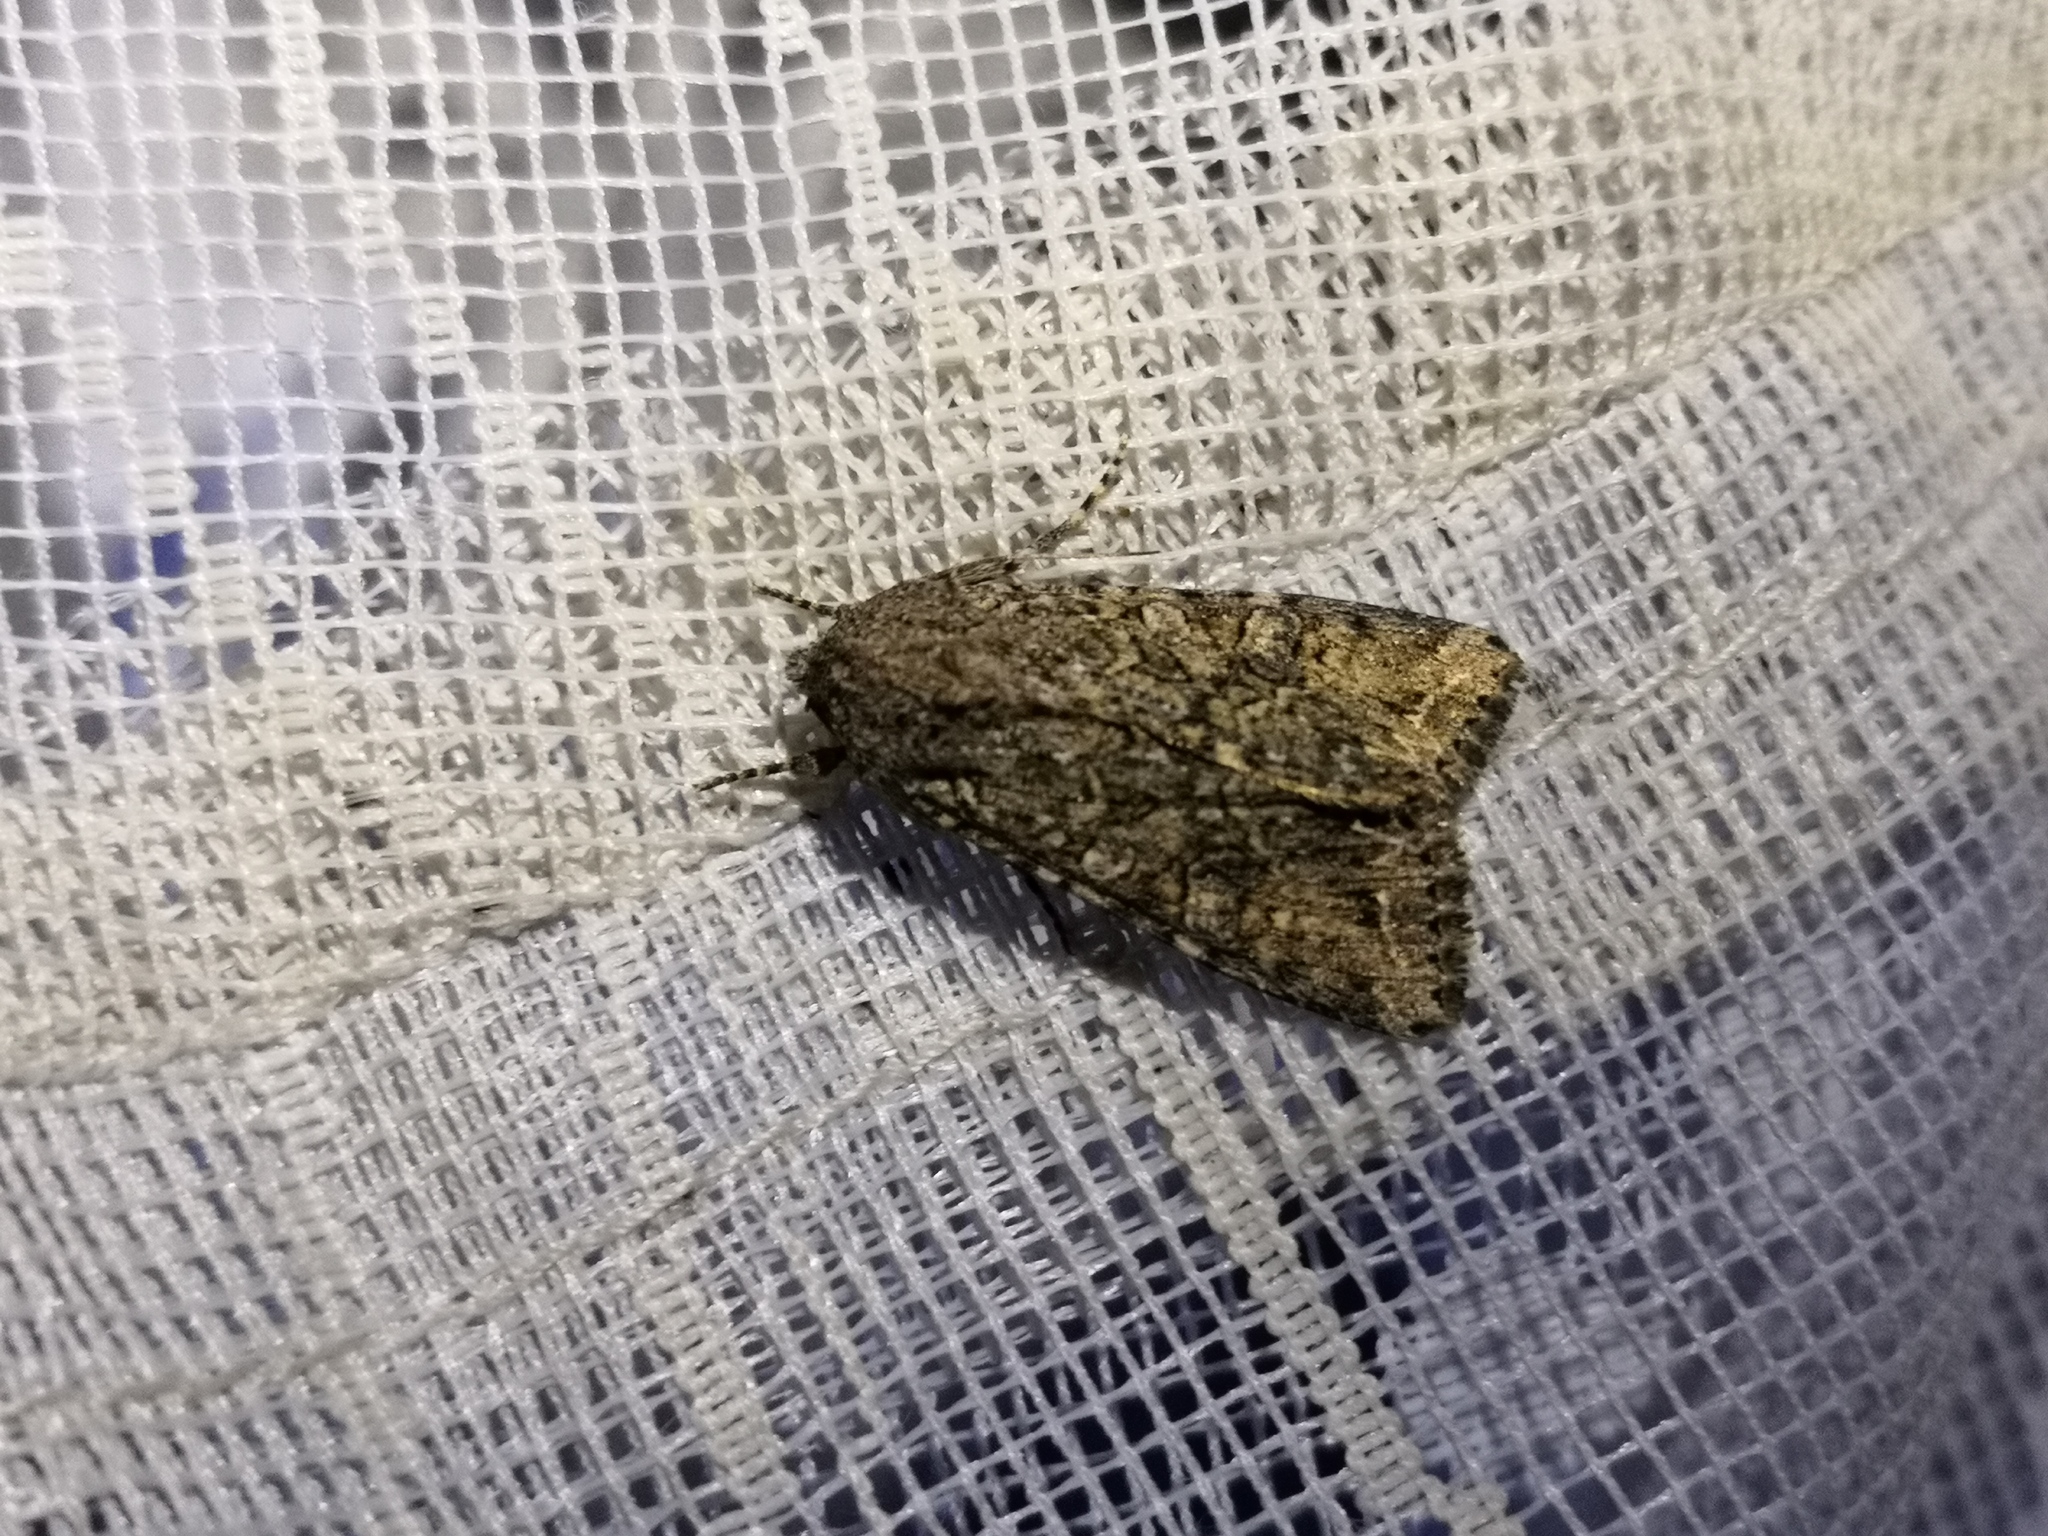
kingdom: Animalia
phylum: Arthropoda
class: Insecta
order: Lepidoptera
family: Noctuidae
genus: Anarta
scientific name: Anarta trifolii
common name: Clover cutworm moth
